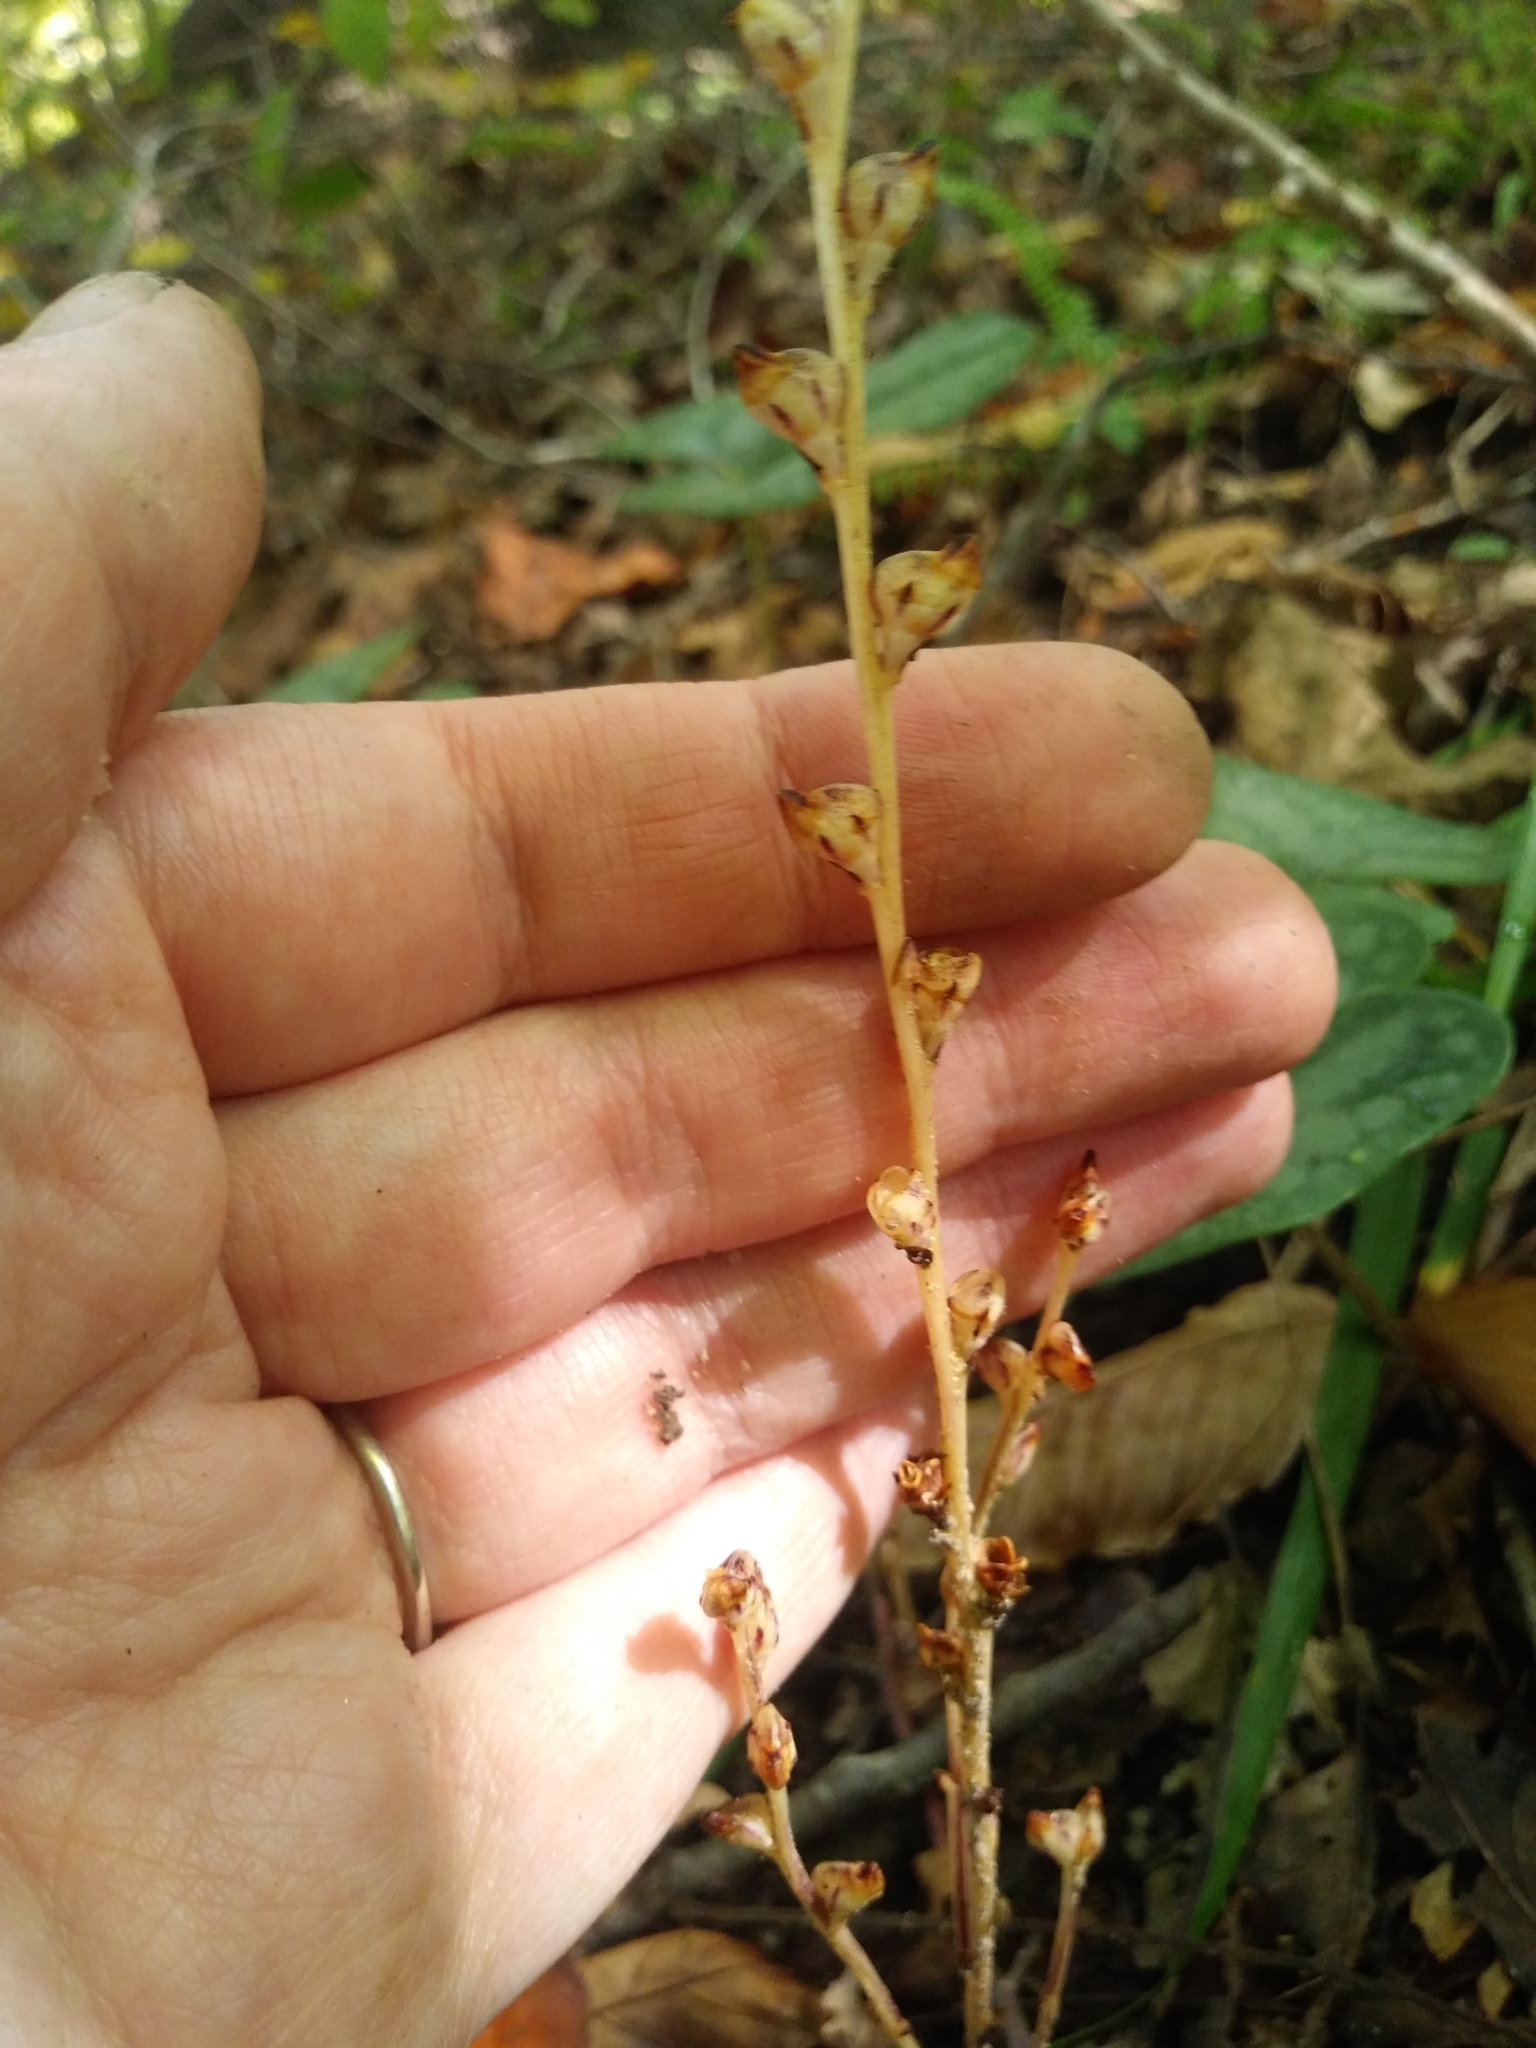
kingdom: Plantae
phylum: Tracheophyta
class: Magnoliopsida
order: Lamiales
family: Orobanchaceae
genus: Epifagus
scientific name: Epifagus virginiana
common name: Beechdrops
